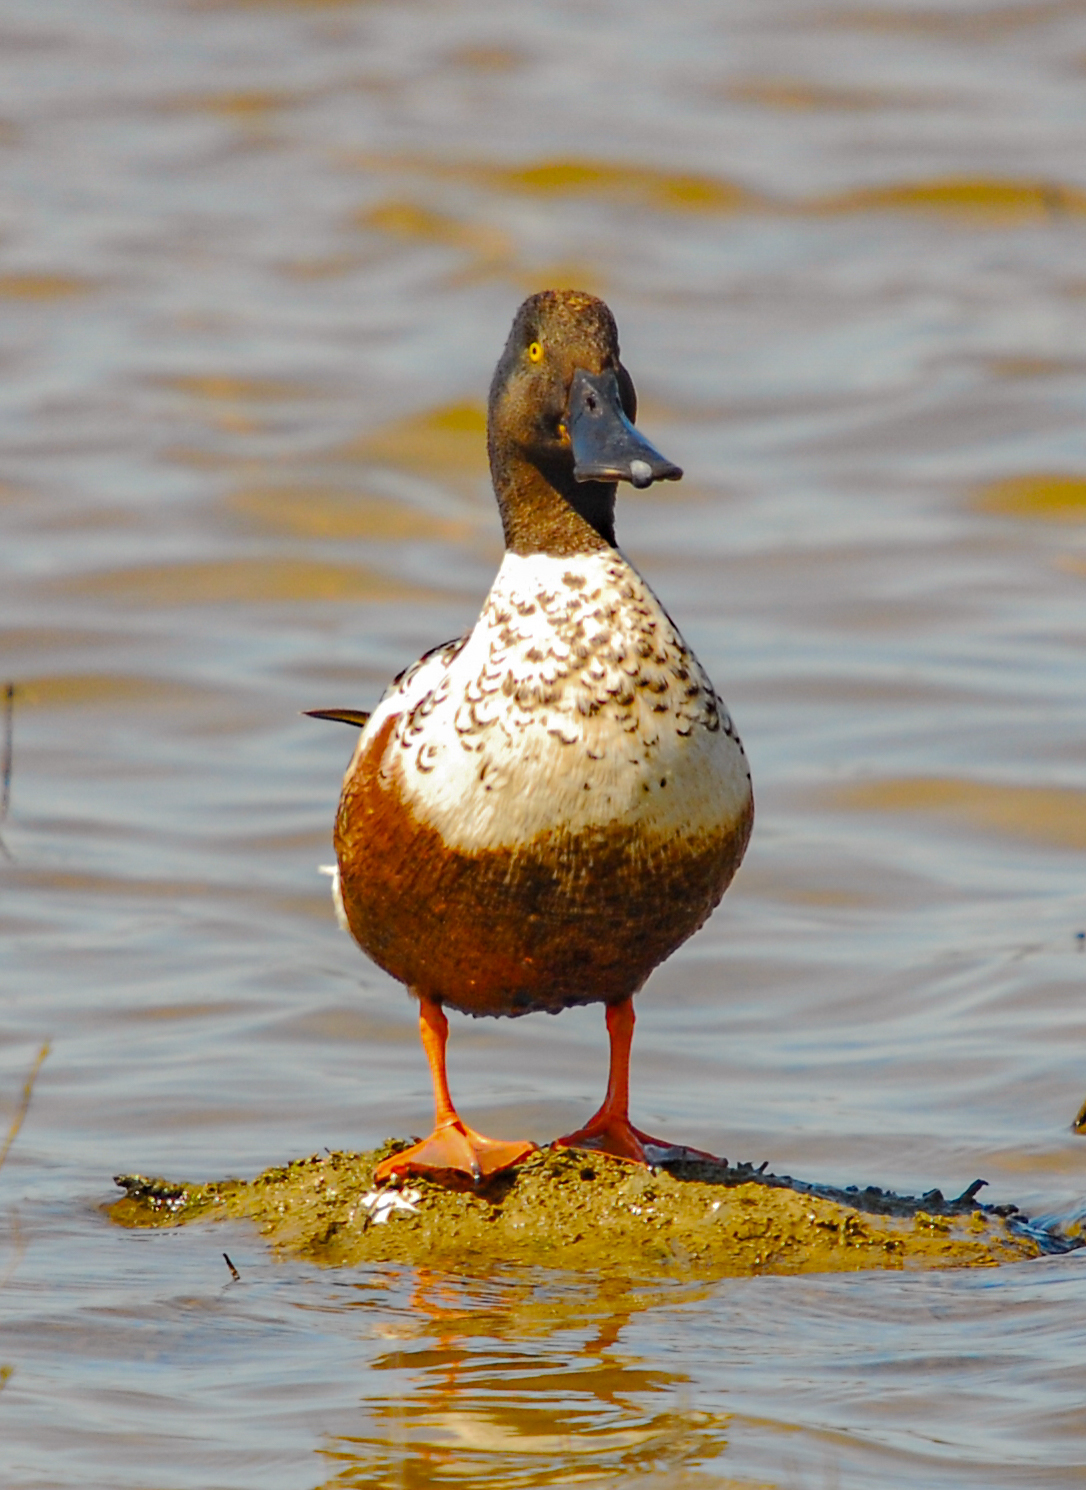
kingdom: Animalia
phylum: Chordata
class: Aves
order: Anseriformes
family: Anatidae
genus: Spatula
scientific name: Spatula clypeata
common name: Northern shoveler
